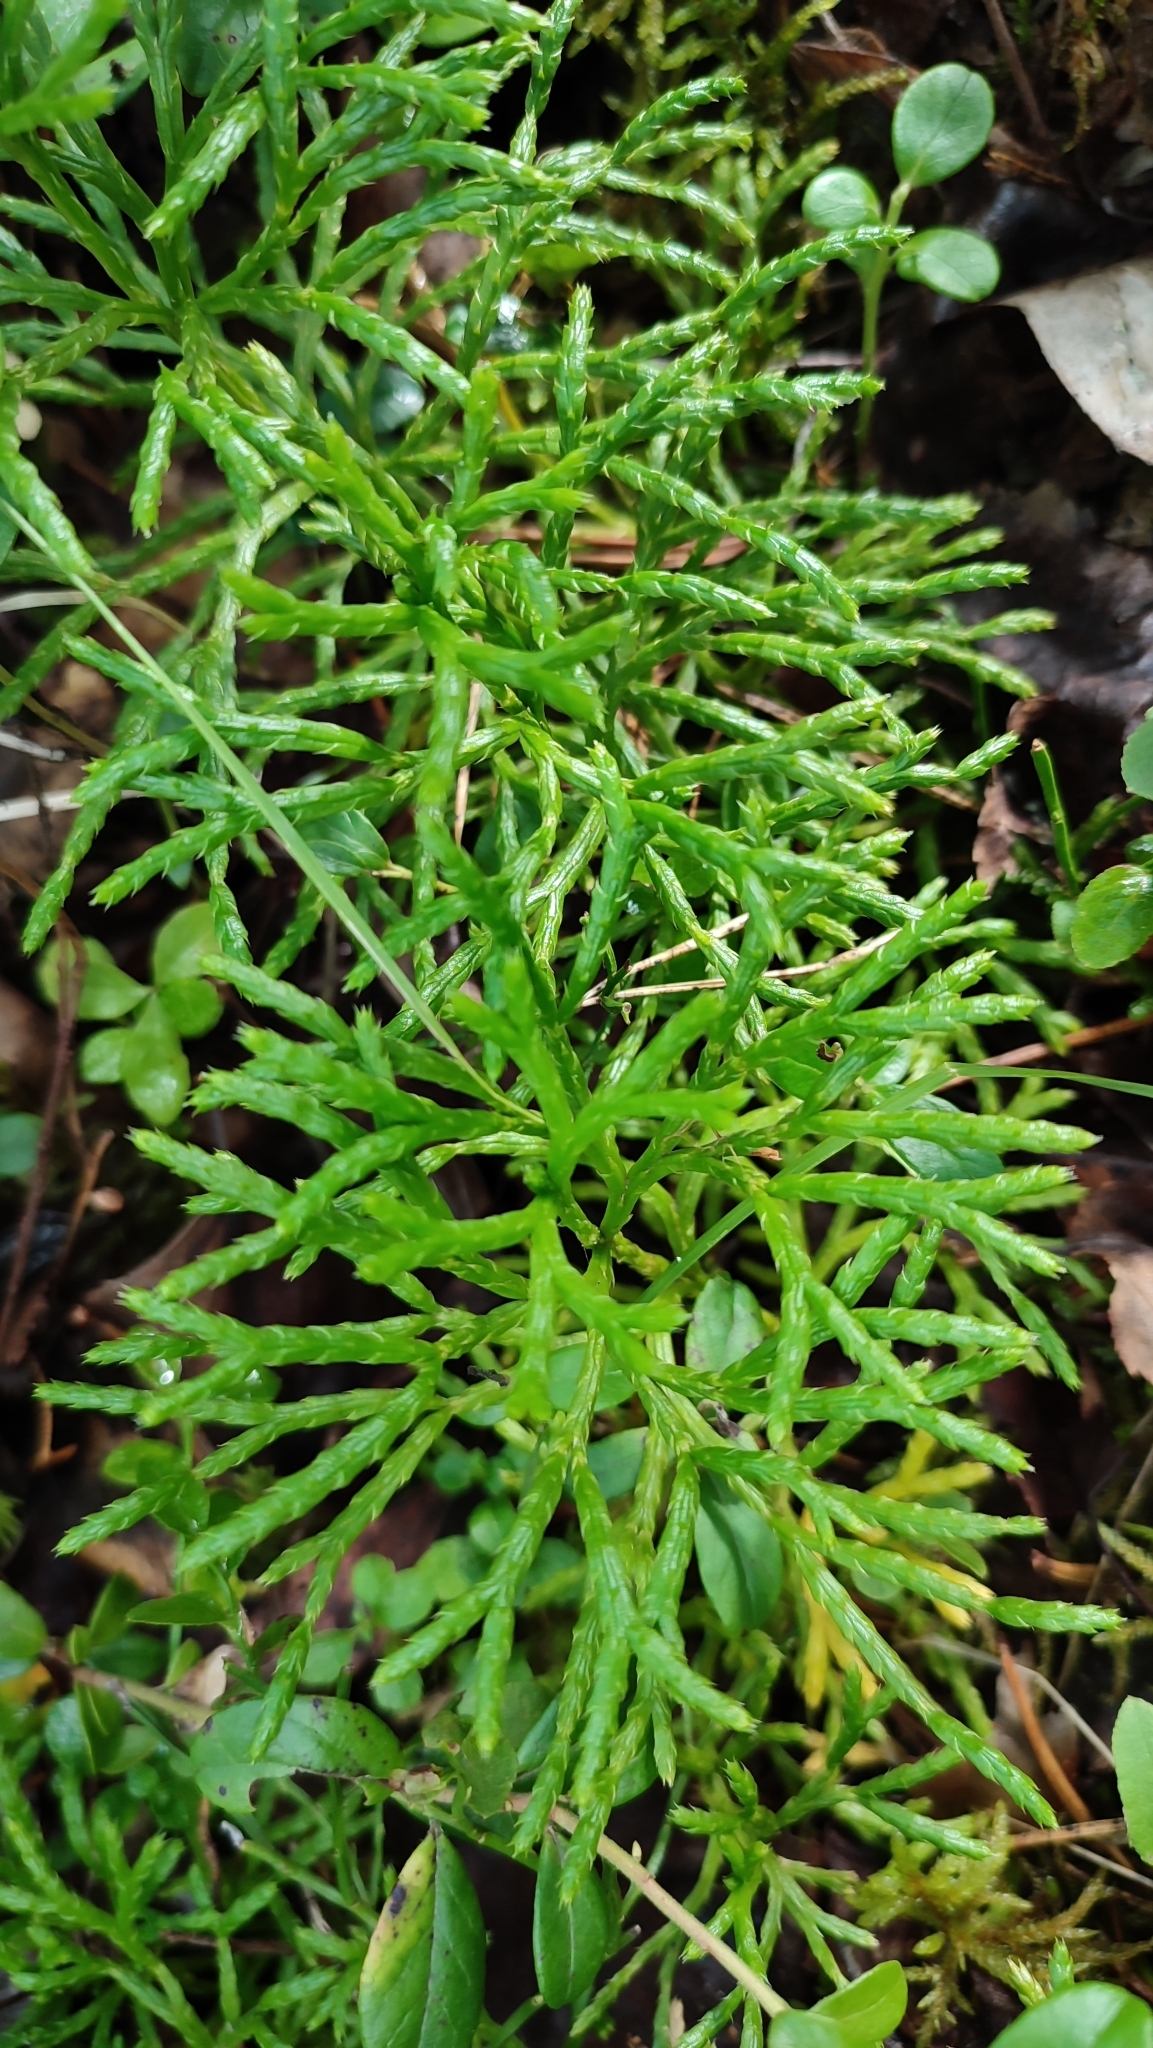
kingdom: Plantae
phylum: Tracheophyta
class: Lycopodiopsida
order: Lycopodiales
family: Lycopodiaceae
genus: Diphasiastrum
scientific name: Diphasiastrum complanatum
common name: Northern running-pine
